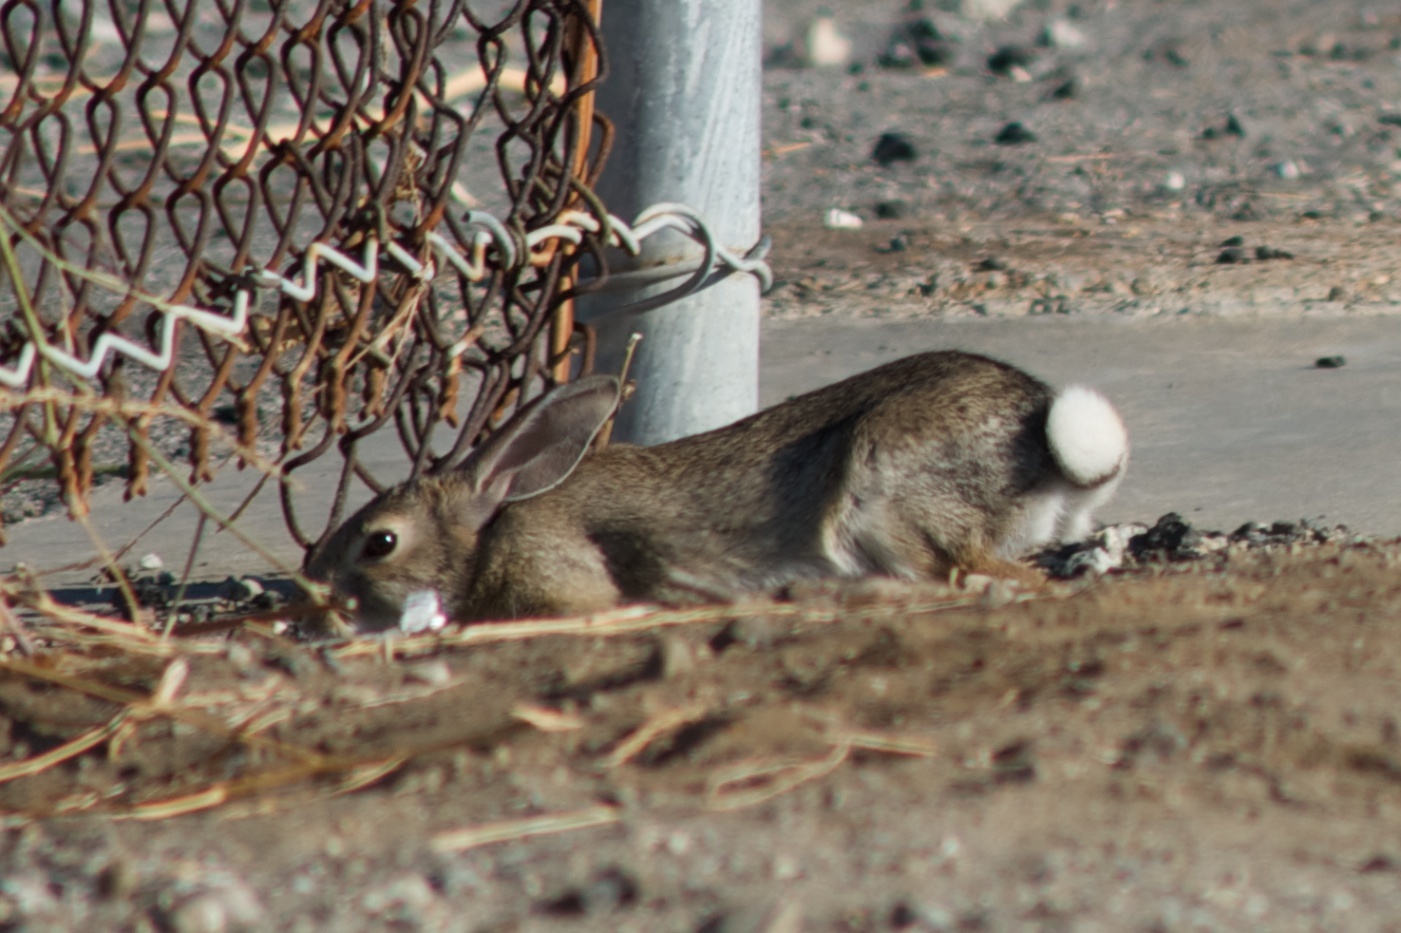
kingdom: Animalia
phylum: Chordata
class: Mammalia
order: Lagomorpha
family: Leporidae
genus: Sylvilagus
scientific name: Sylvilagus audubonii
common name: Desert cottontail
